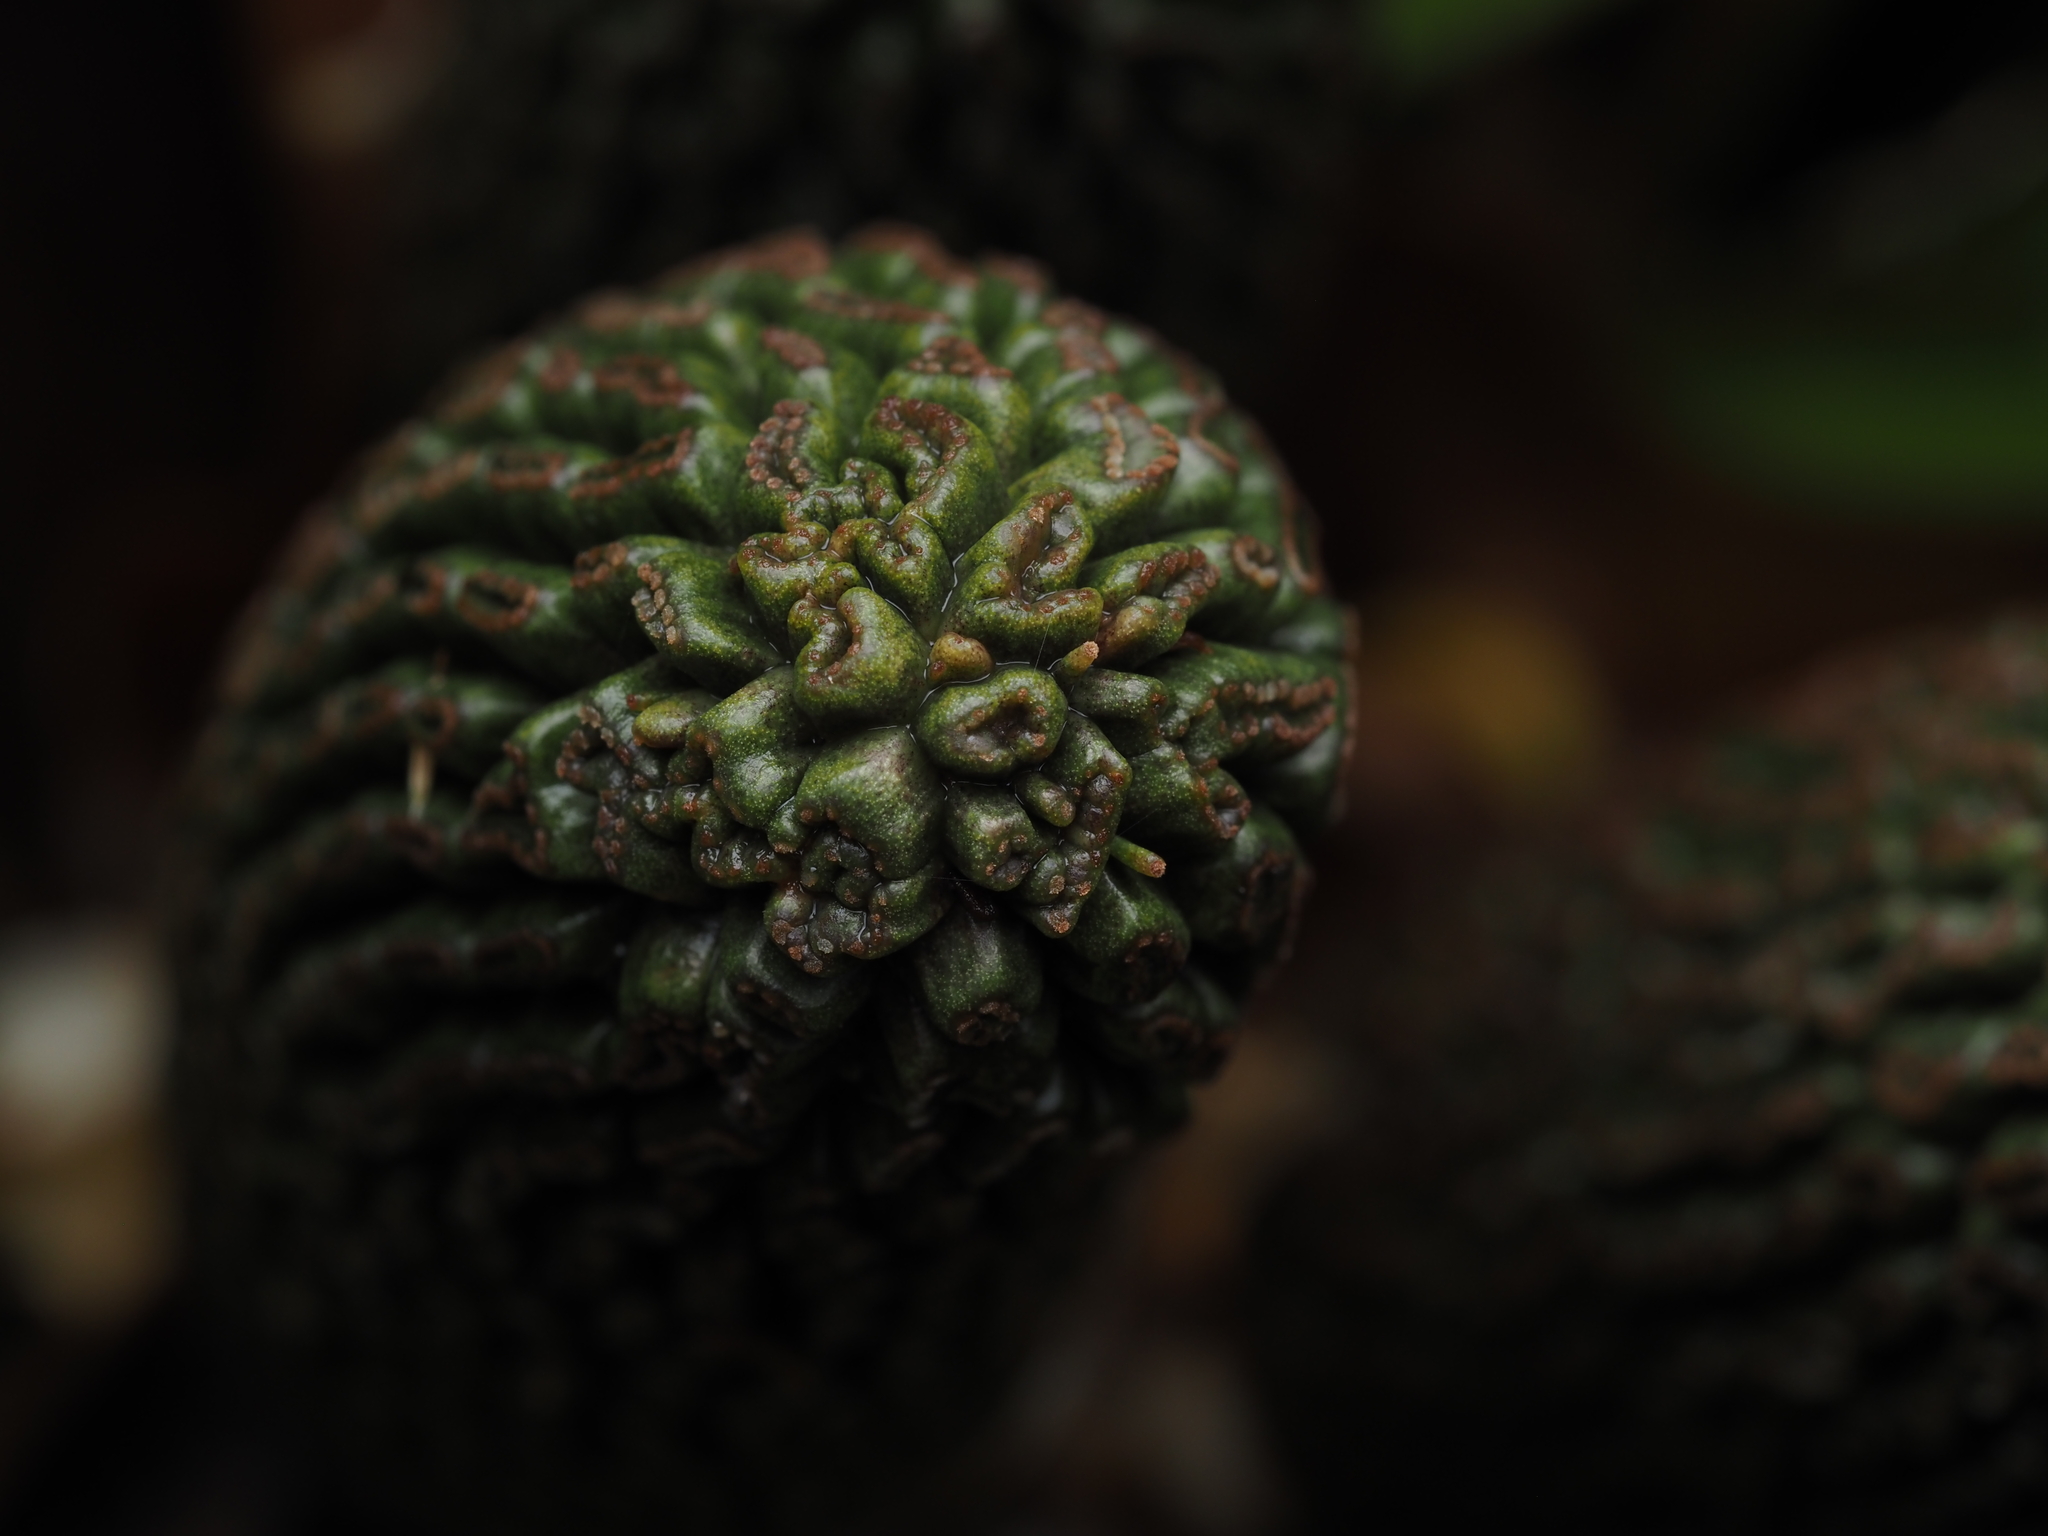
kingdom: Plantae
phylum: Tracheophyta
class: Liliopsida
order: Pandanales
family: Pandanaceae
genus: Freycinetia
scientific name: Freycinetia banksii
